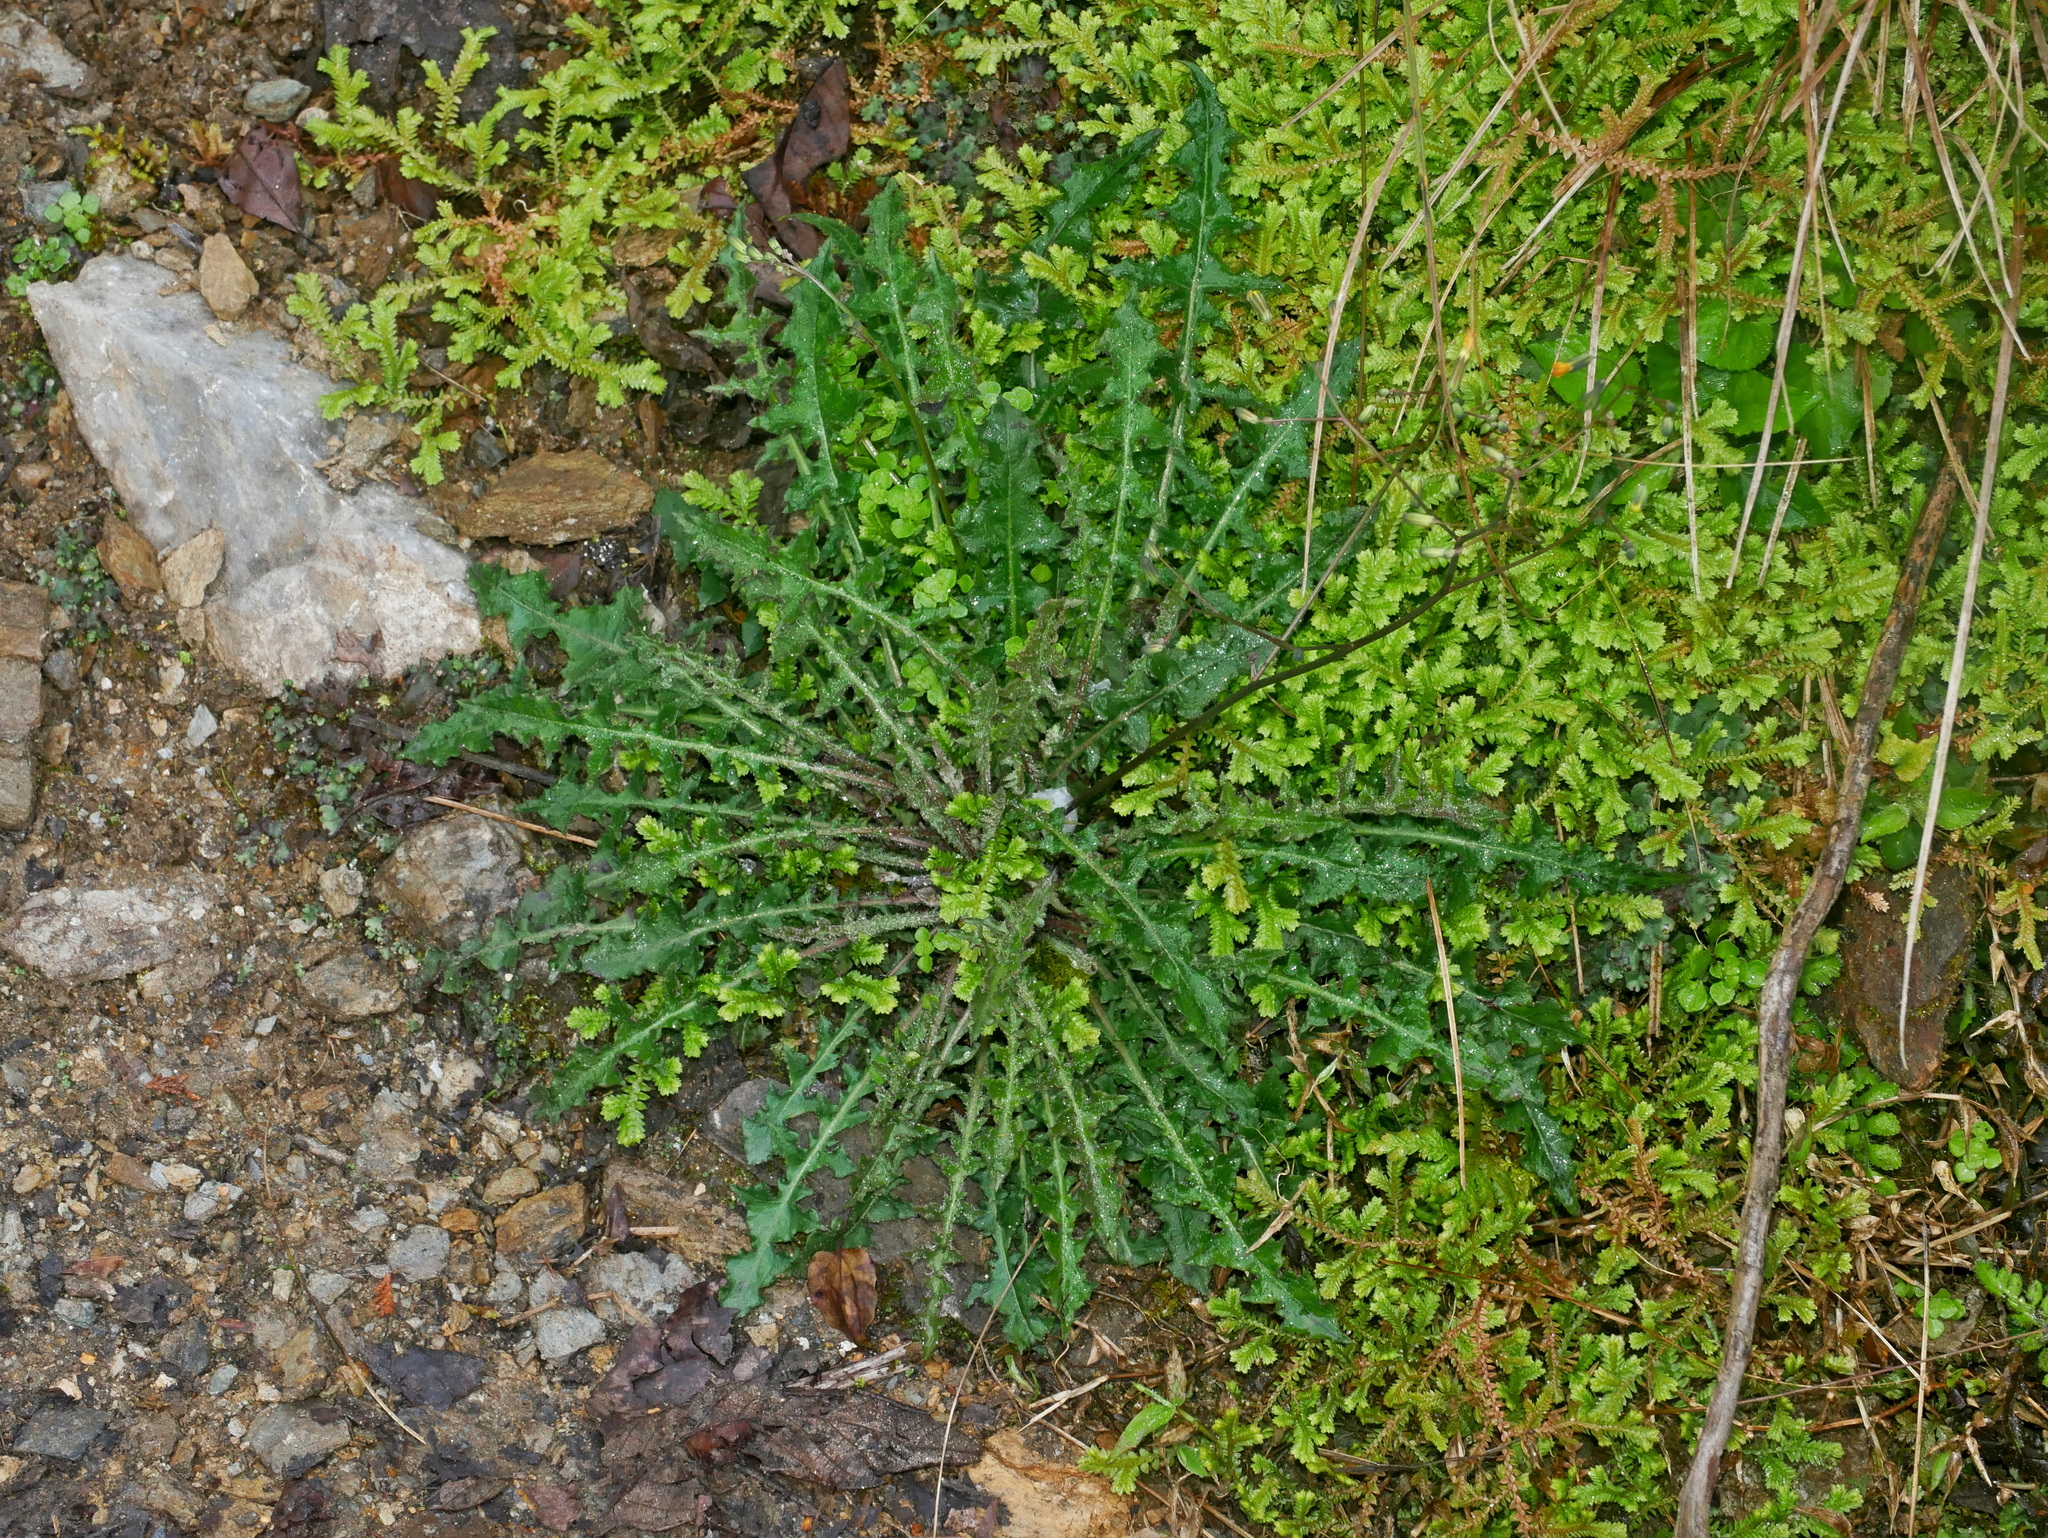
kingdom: Plantae
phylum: Tracheophyta
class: Magnoliopsida
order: Asterales
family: Asteraceae
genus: Youngia
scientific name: Youngia japonica
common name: Oriental false hawksbeard
